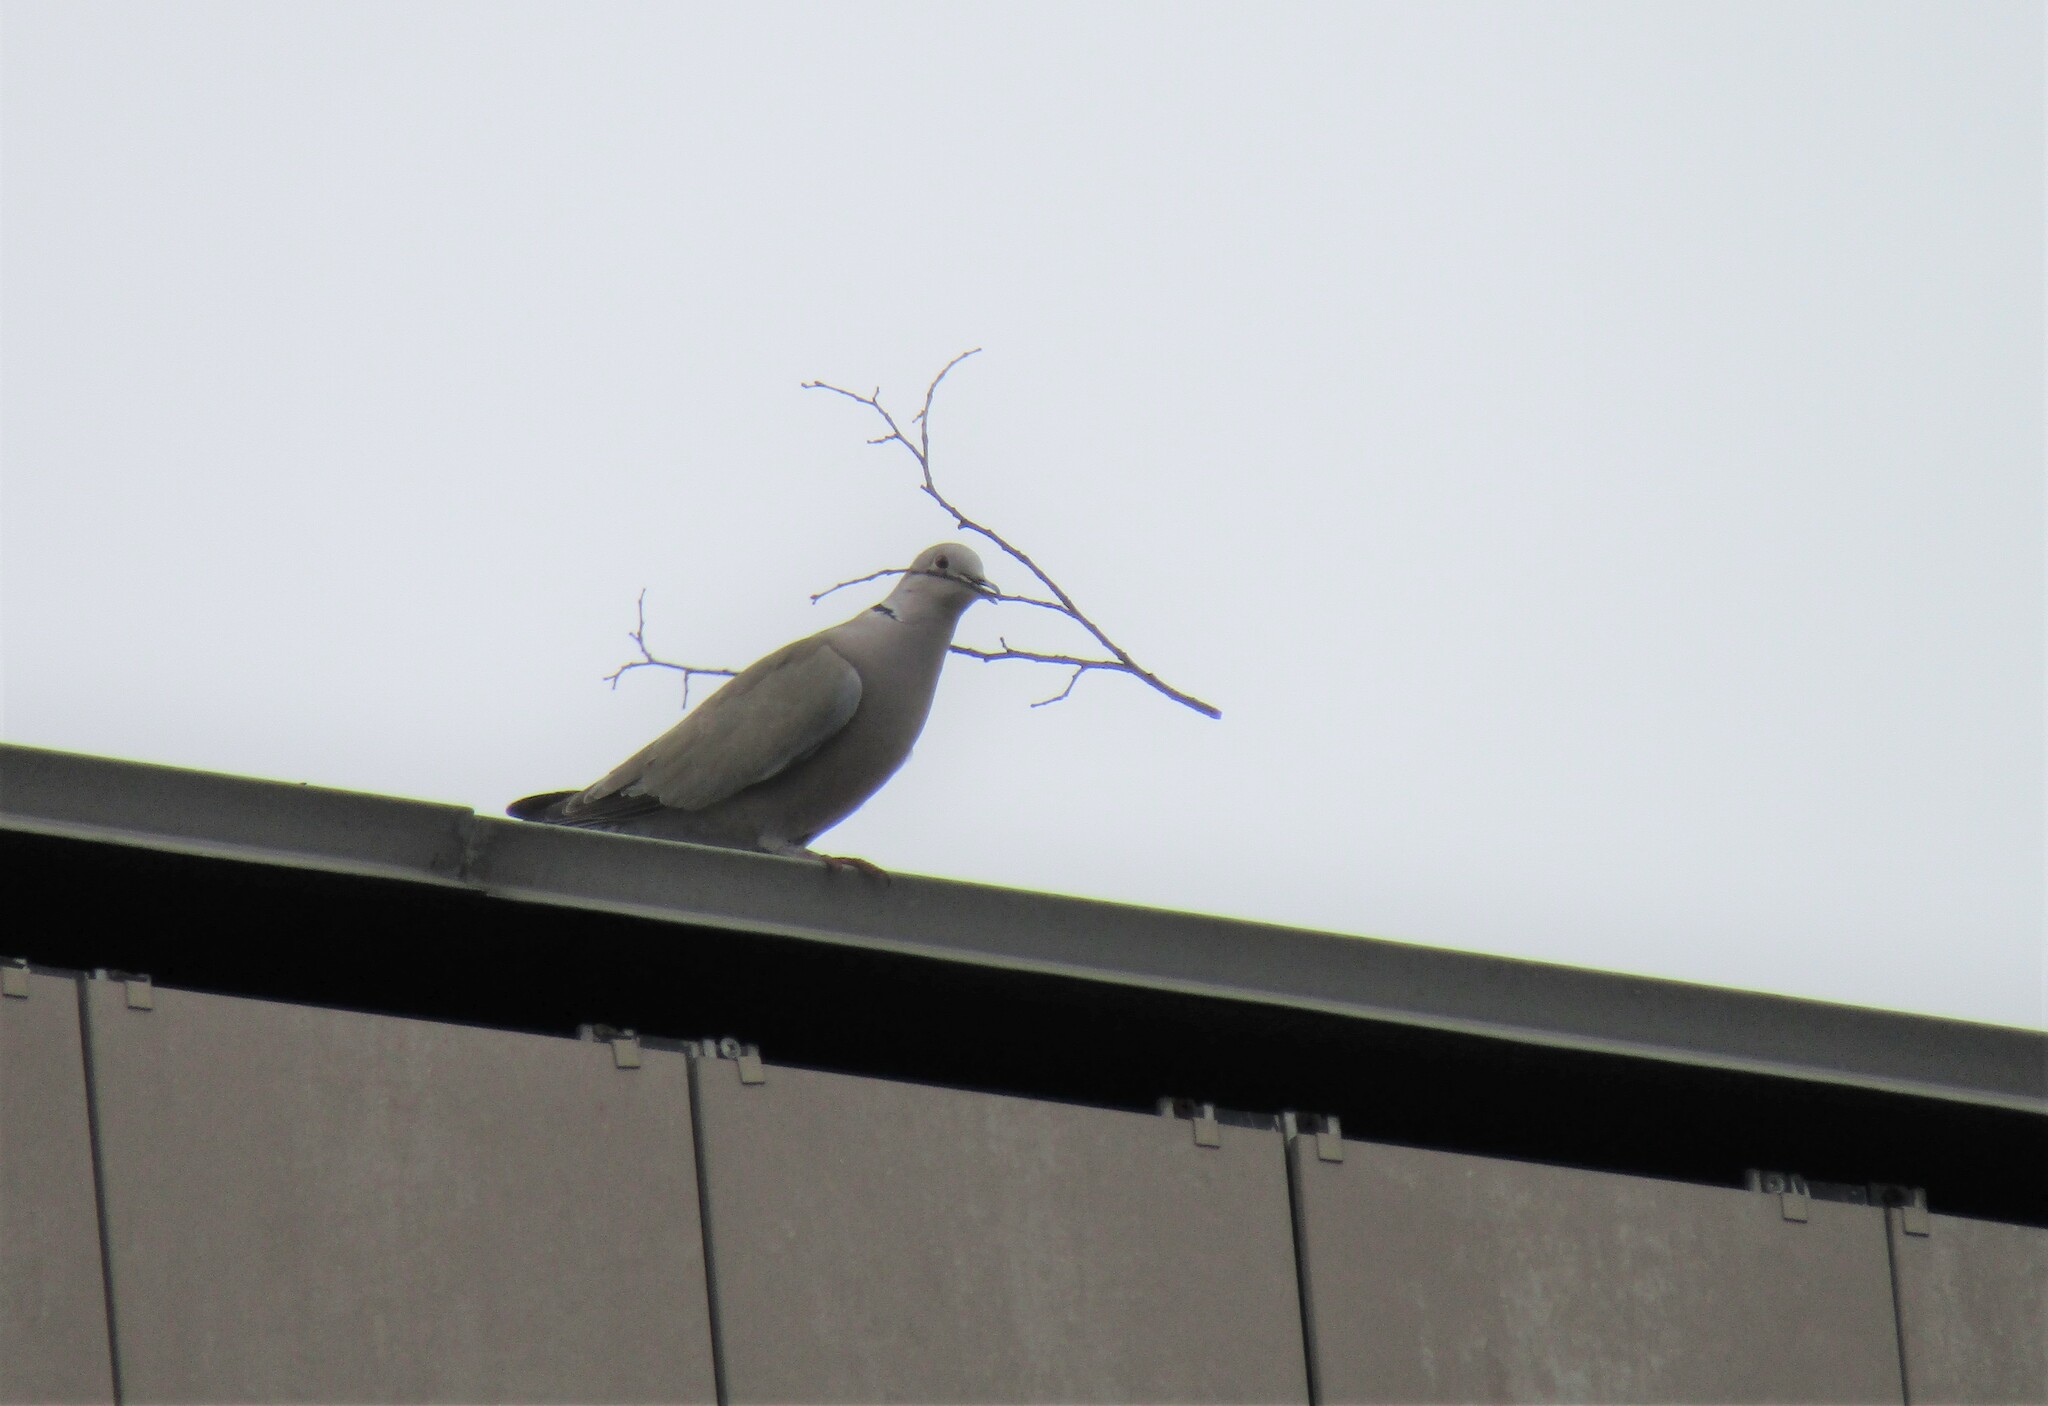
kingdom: Animalia
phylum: Chordata
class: Aves
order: Columbiformes
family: Columbidae
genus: Streptopelia
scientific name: Streptopelia decaocto
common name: Eurasian collared dove
